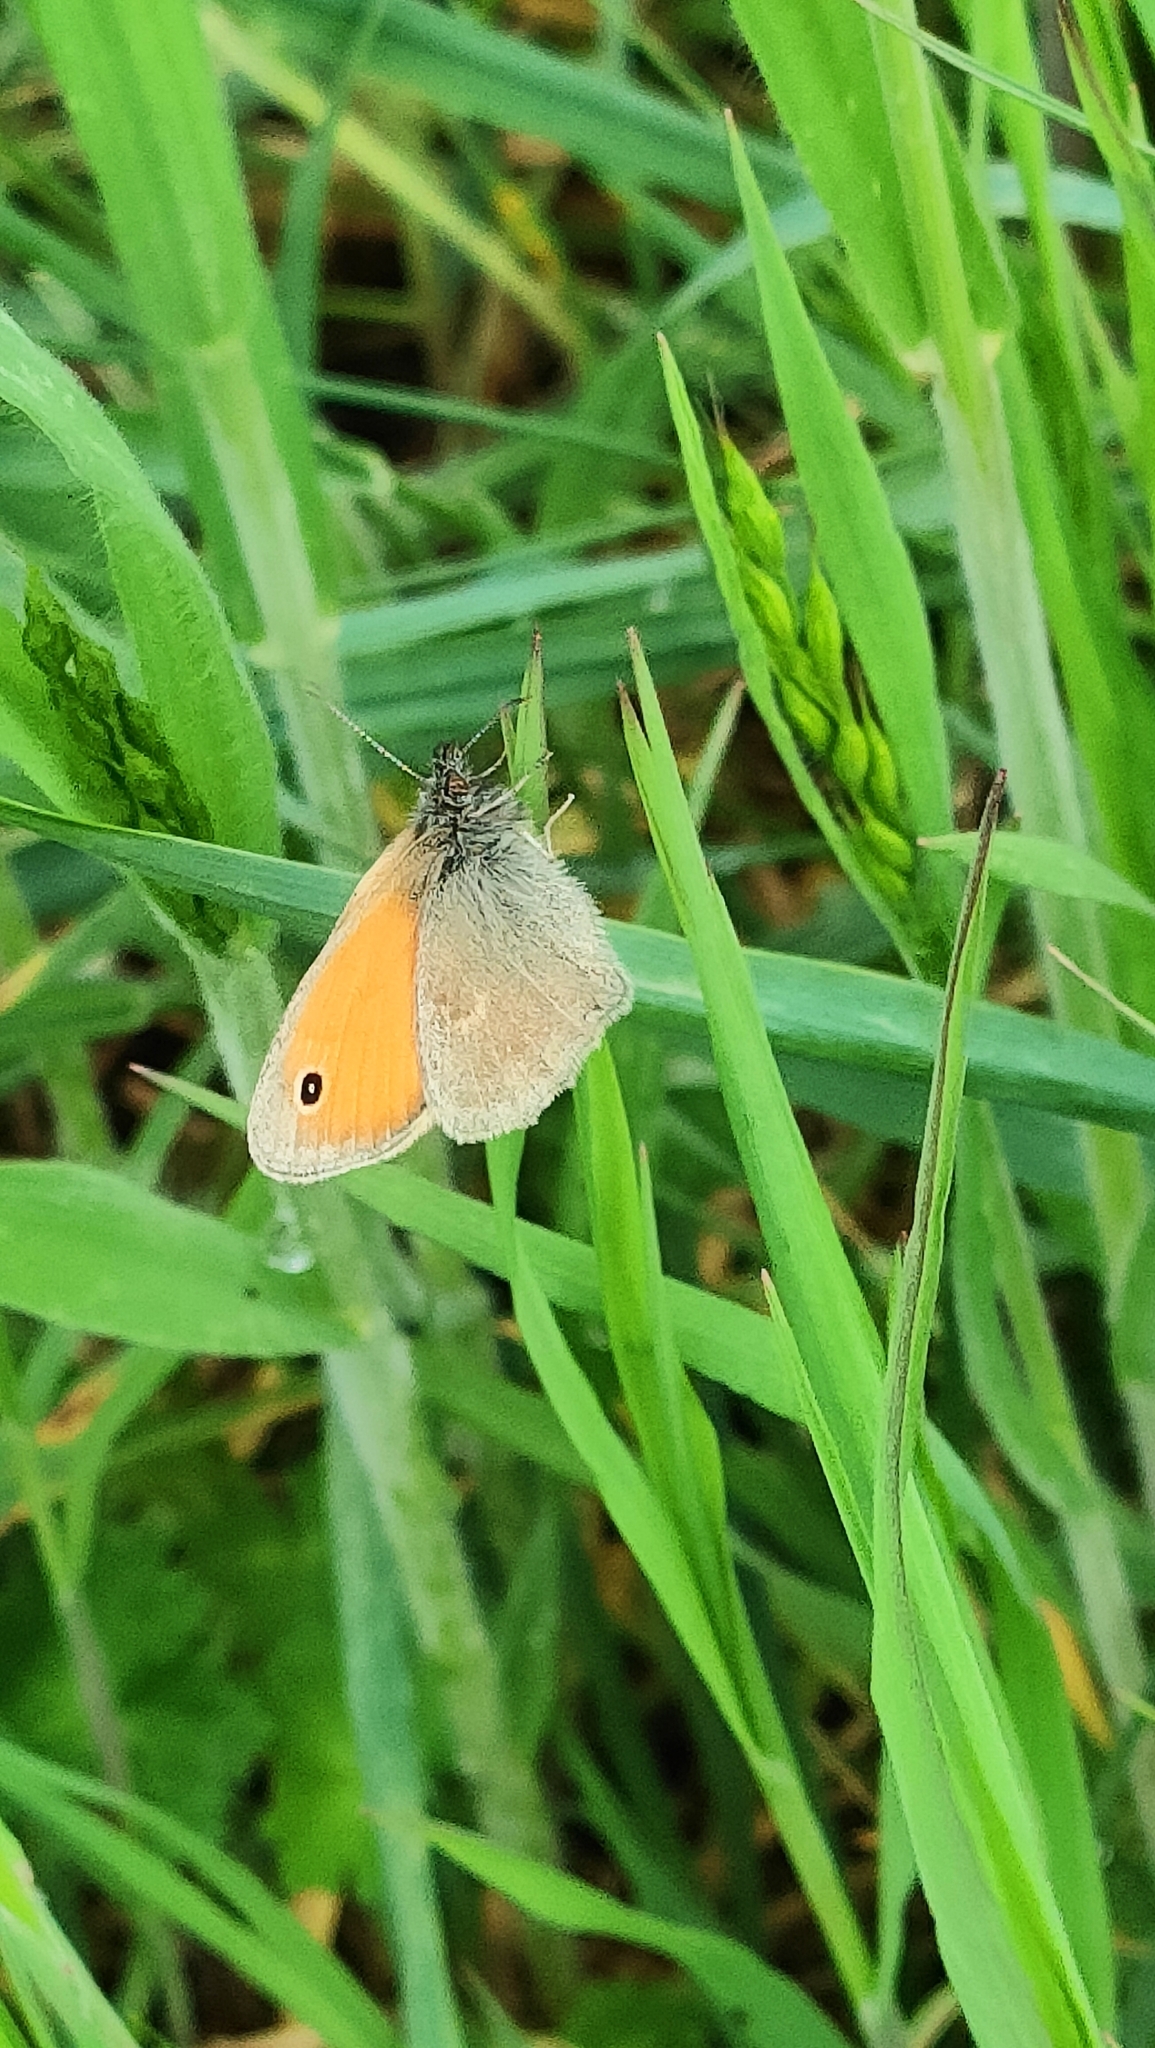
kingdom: Animalia
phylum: Arthropoda
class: Insecta
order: Lepidoptera
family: Nymphalidae
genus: Coenonympha
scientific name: Coenonympha pamphilus
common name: Small heath
